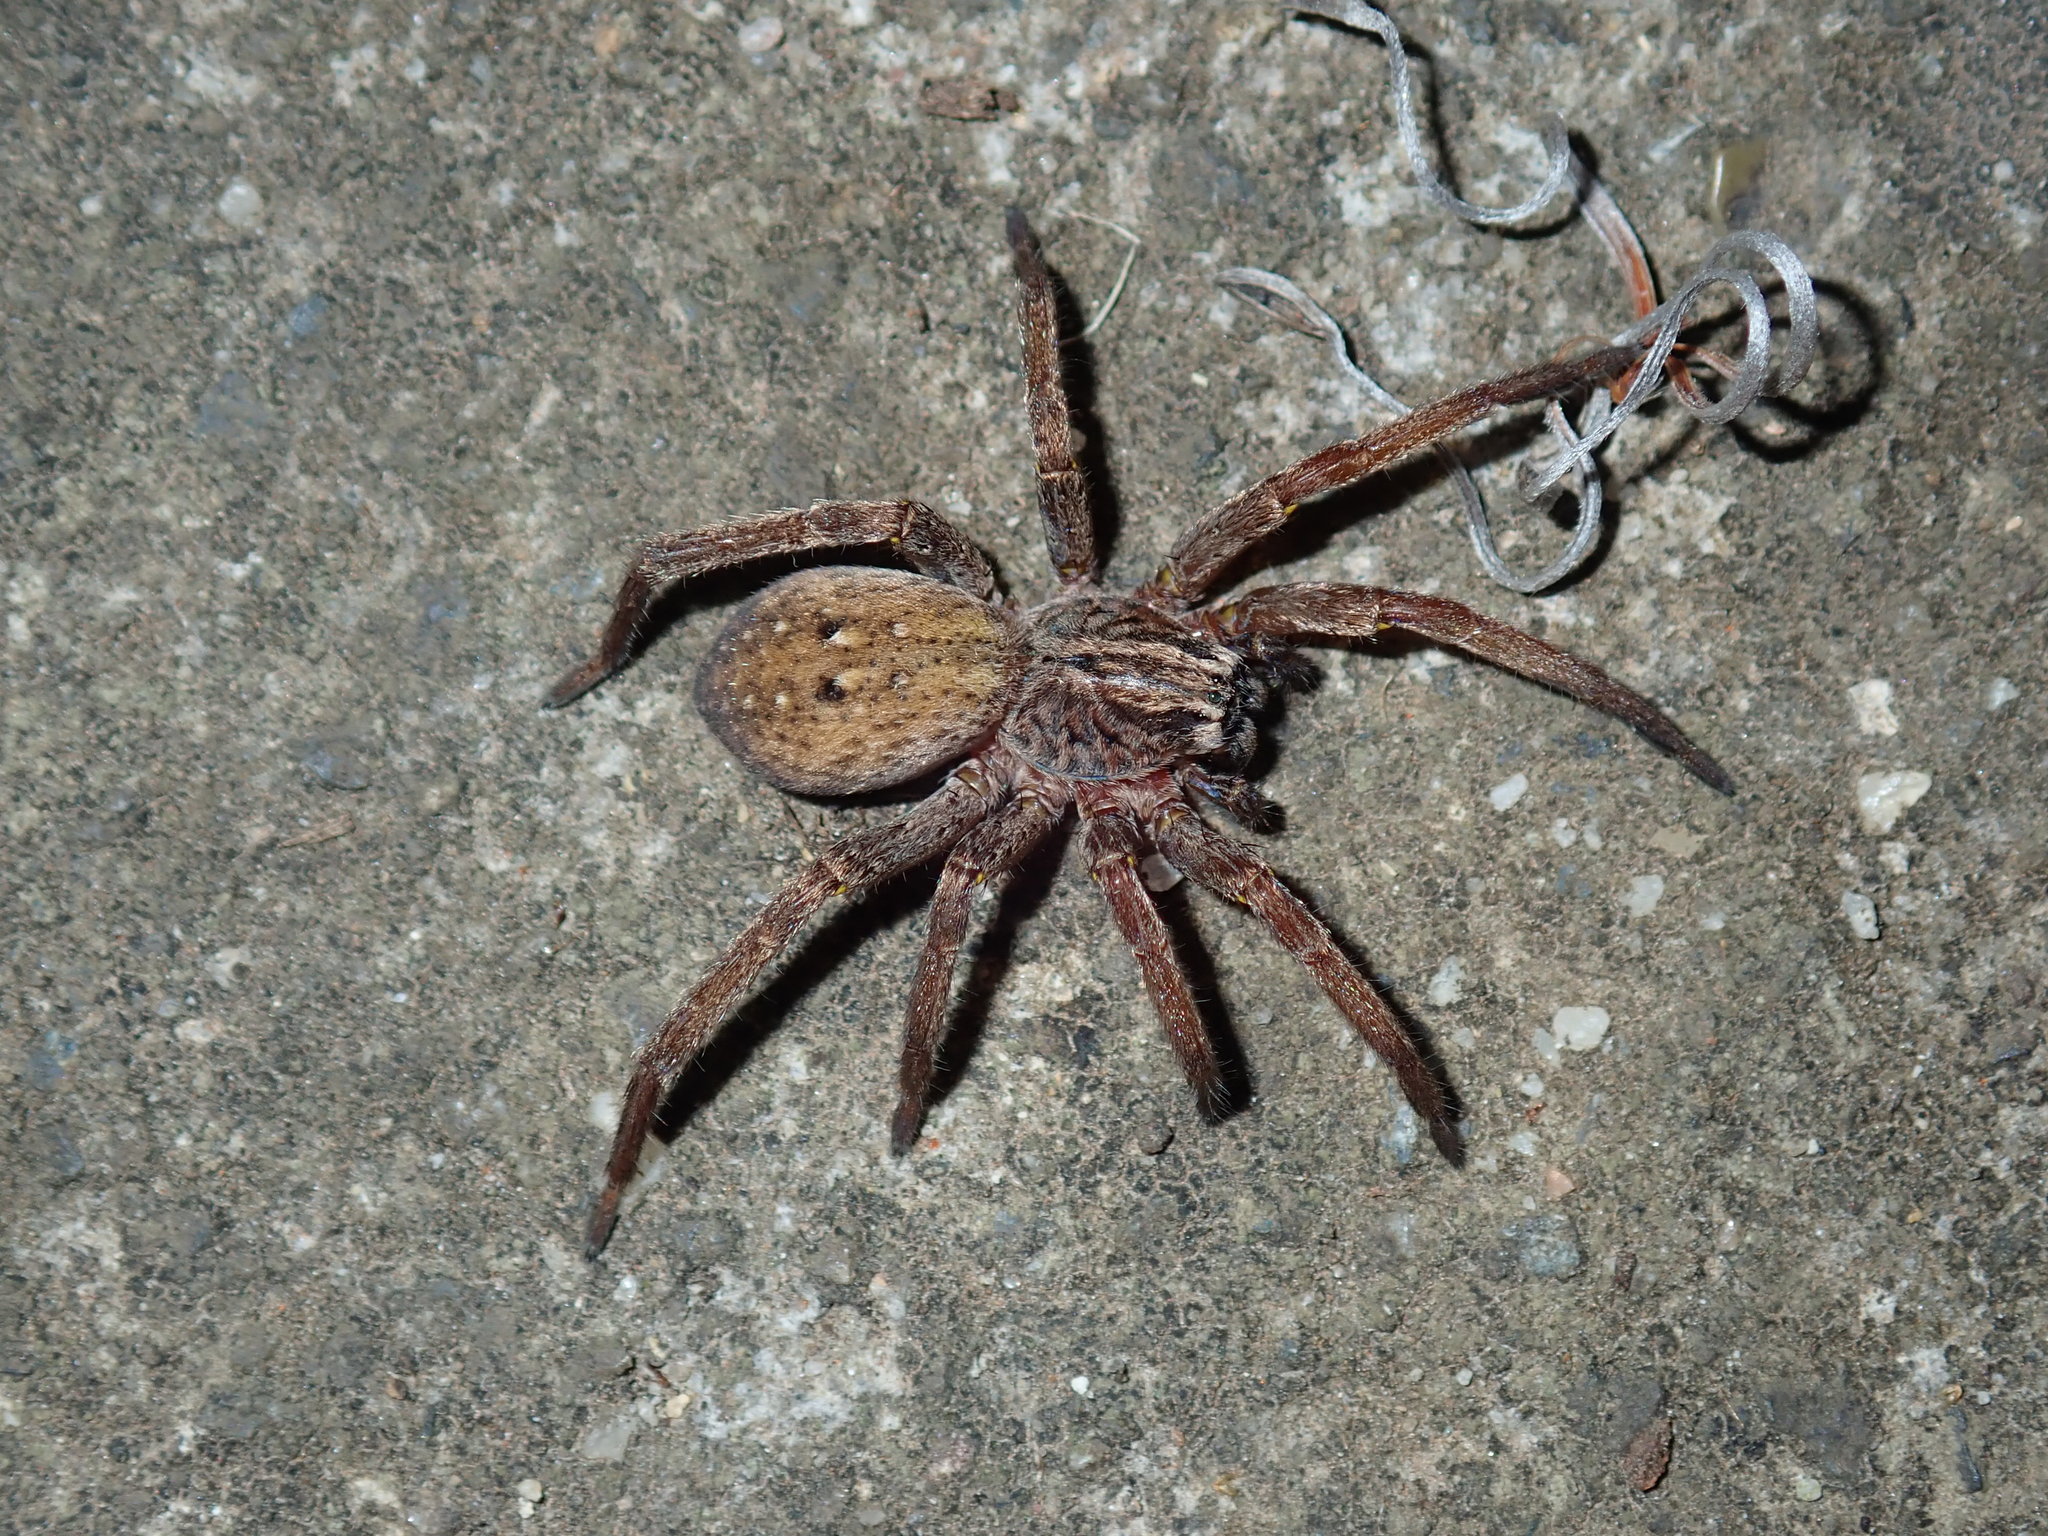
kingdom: Animalia
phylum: Arthropoda
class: Arachnida
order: Araneae
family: Miturgidae
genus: Mituliodon
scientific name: Mituliodon tarantulinus
